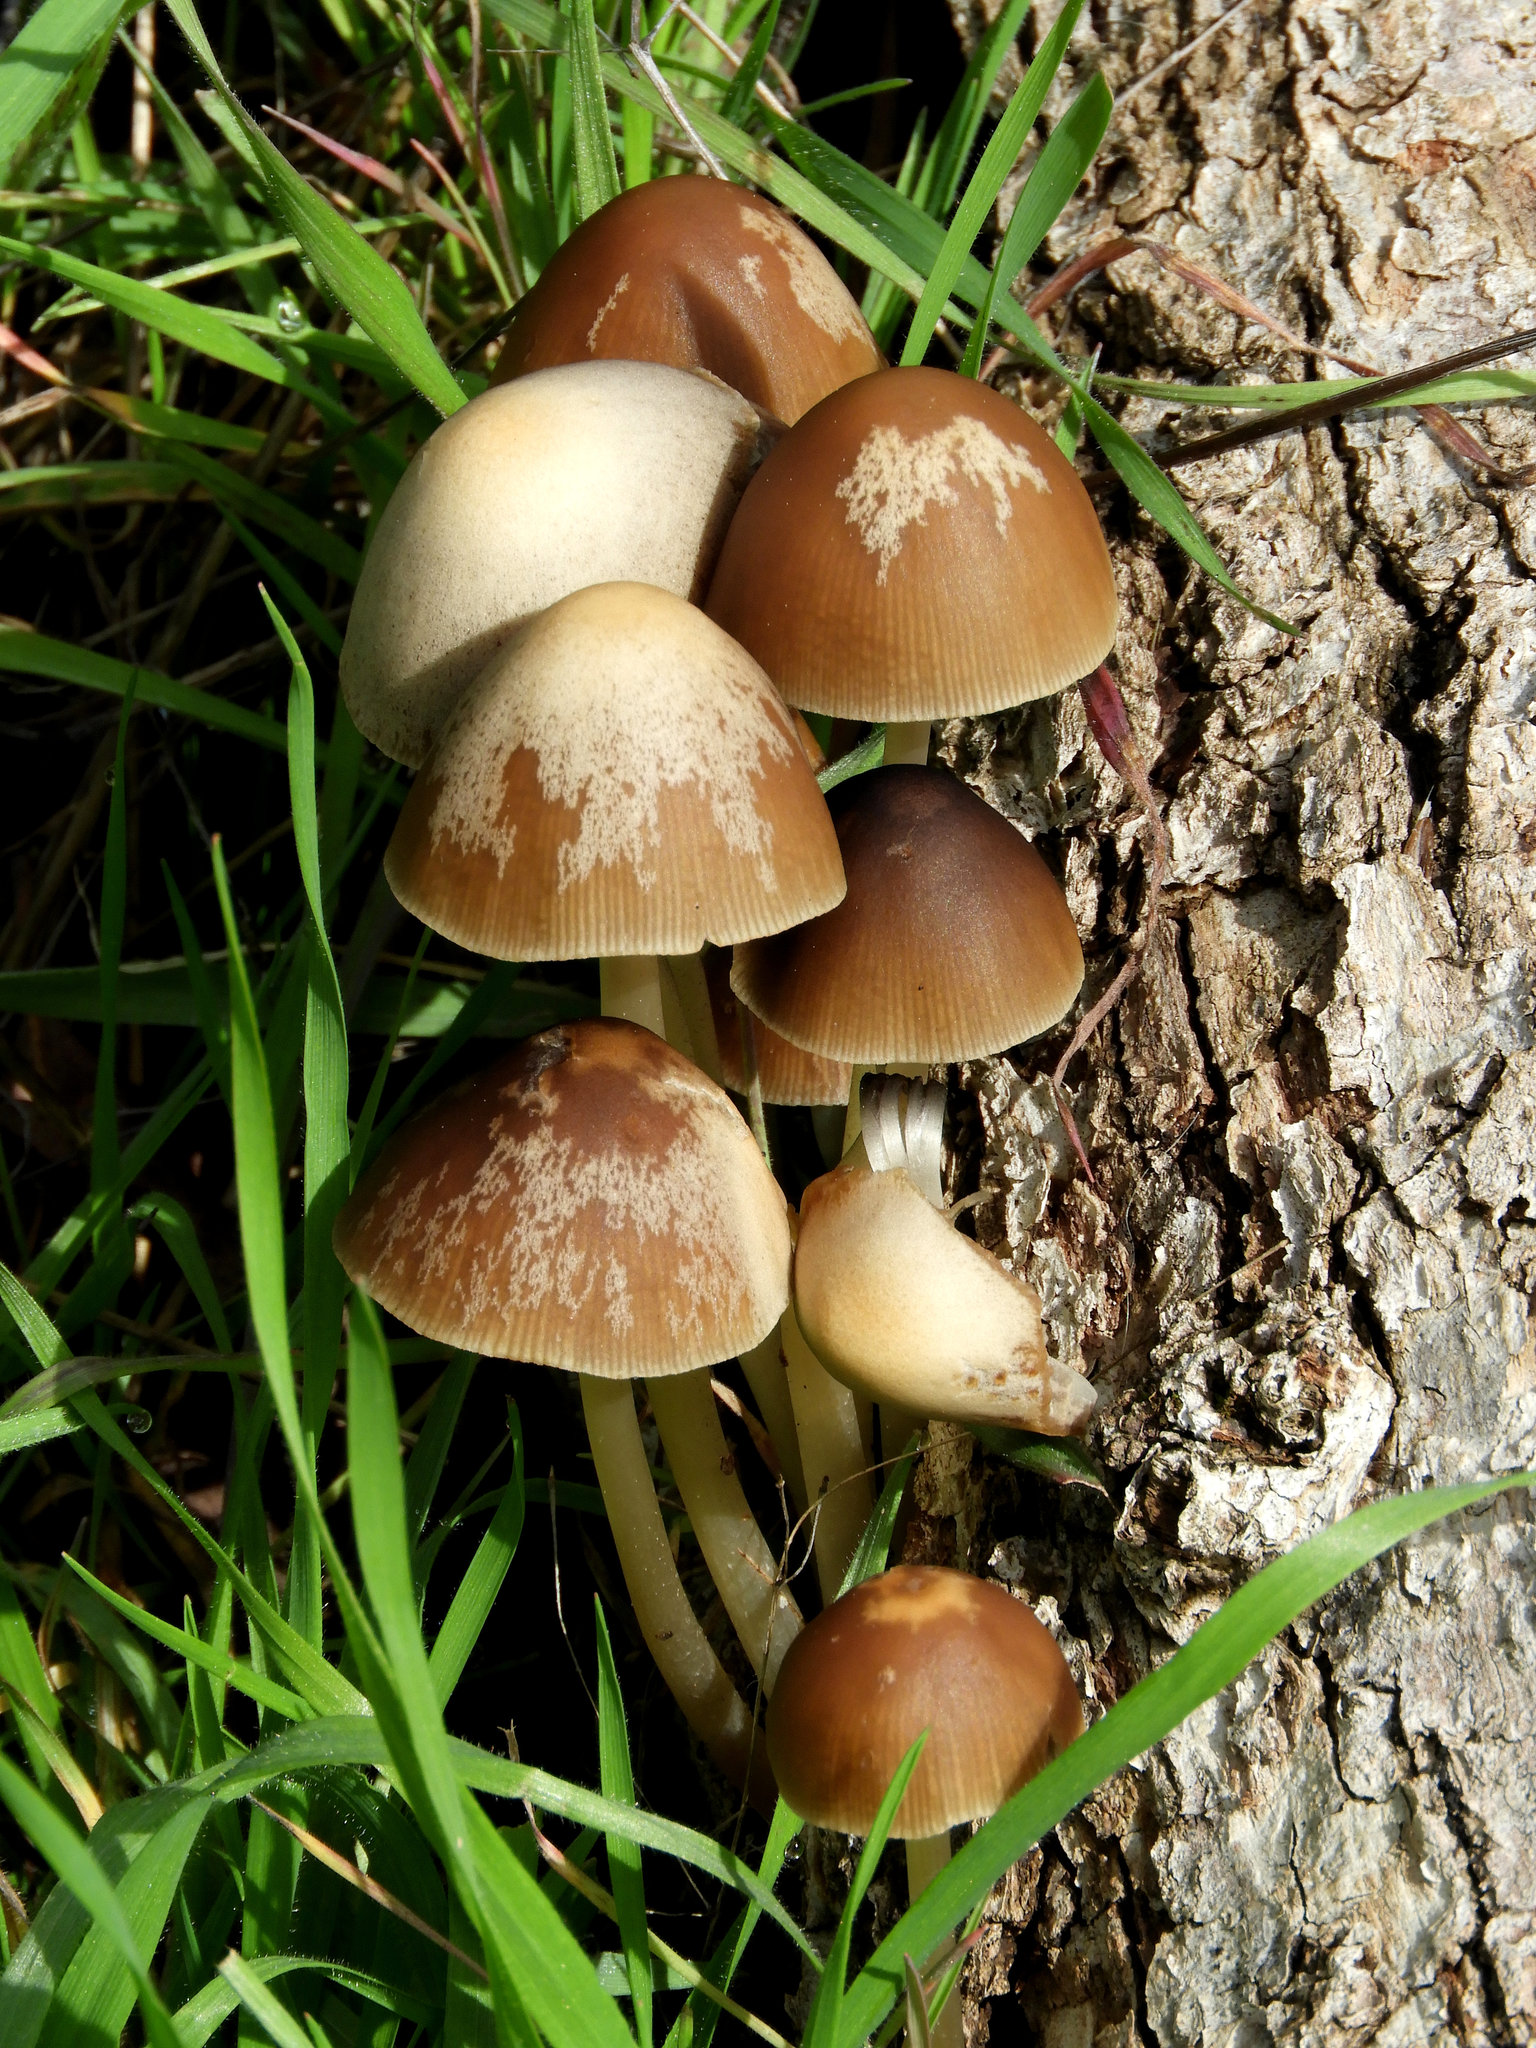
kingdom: Fungi
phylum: Basidiomycota
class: Agaricomycetes
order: Agaricales
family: Psathyrellaceae
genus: Parasola
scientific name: Parasola conopilea
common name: Conical brittlestem
